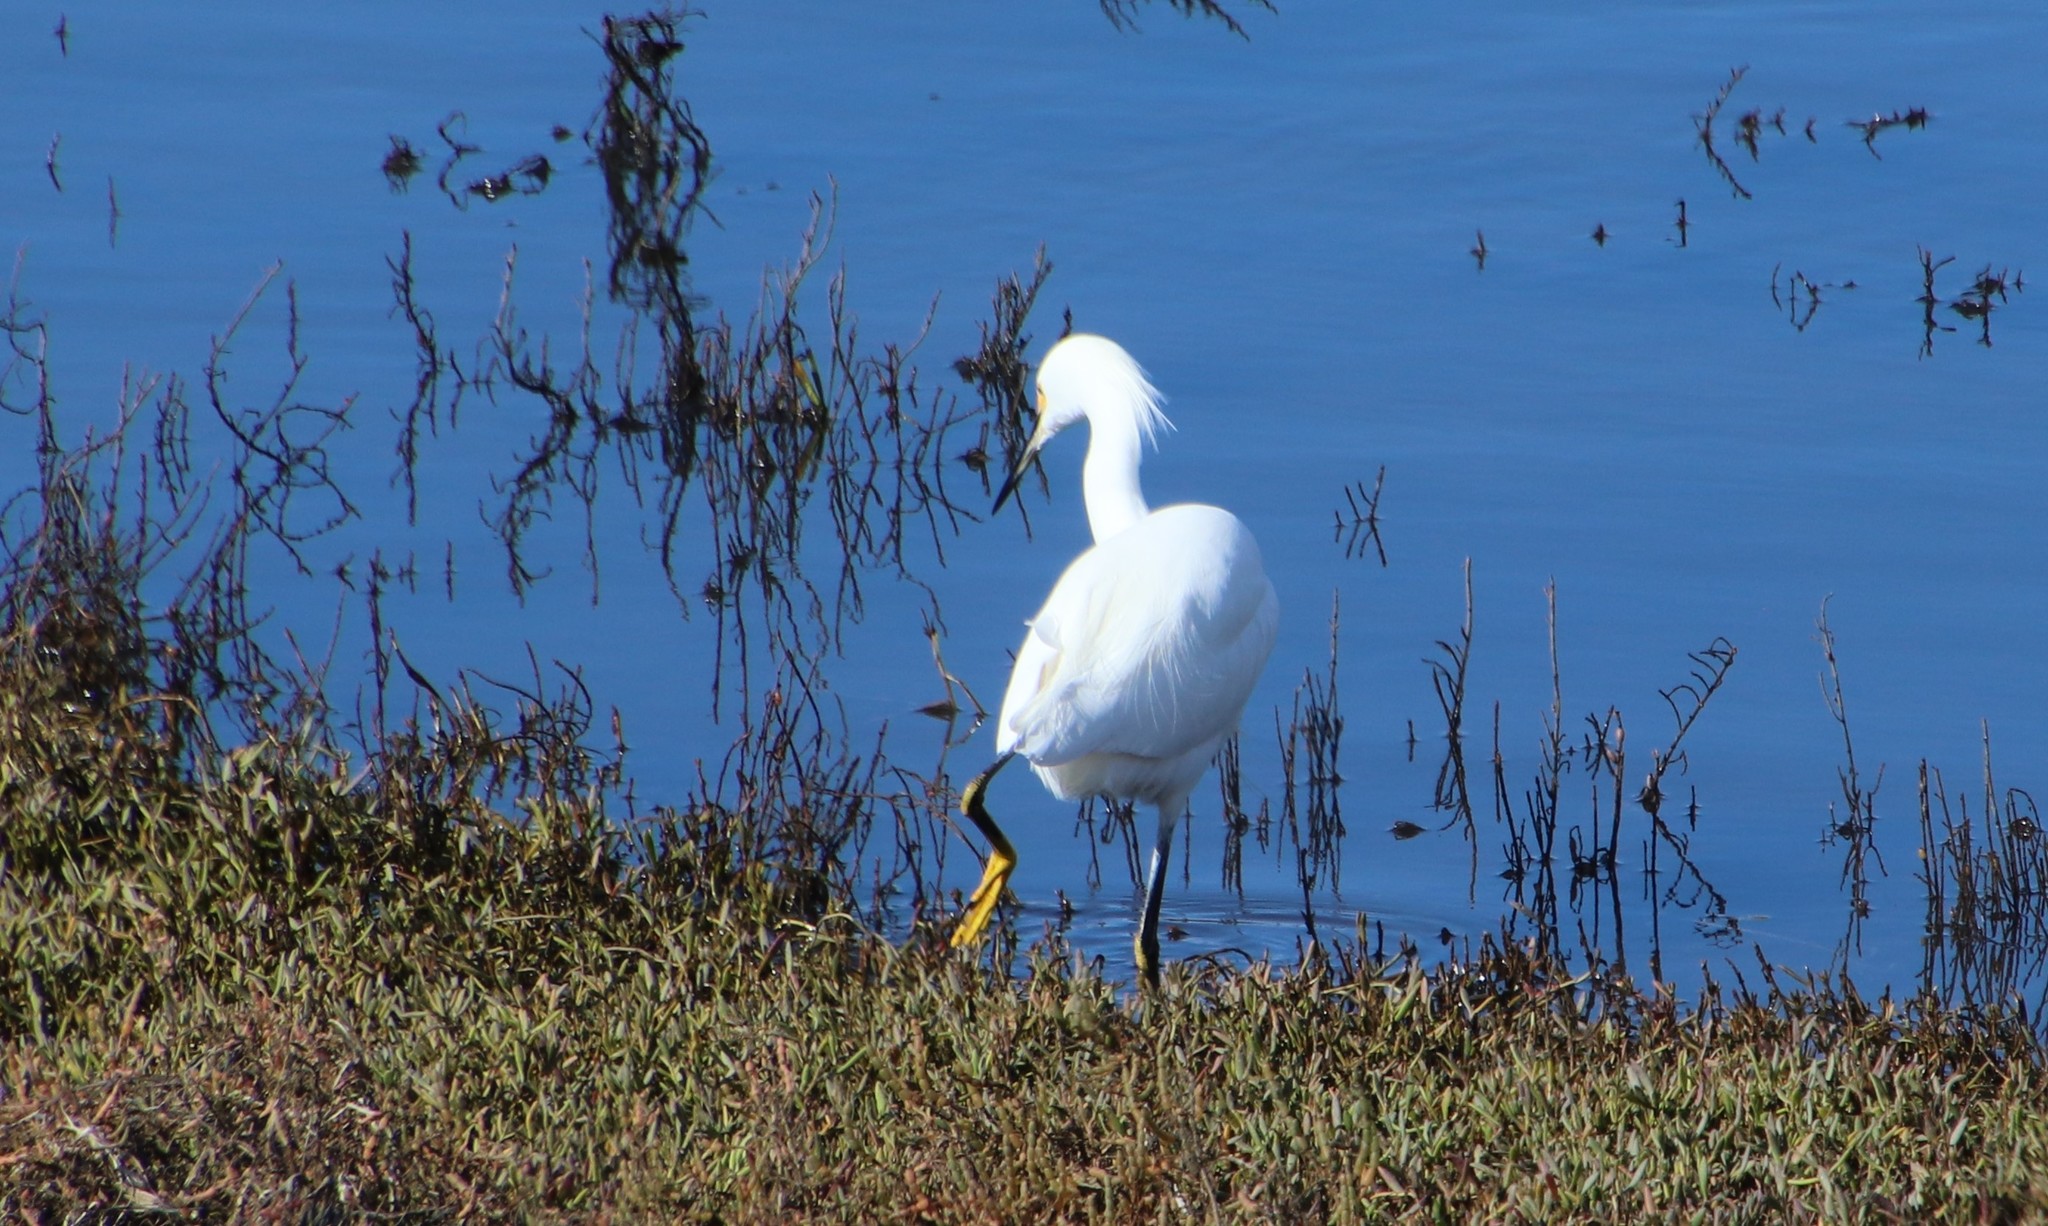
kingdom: Animalia
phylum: Chordata
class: Aves
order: Pelecaniformes
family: Ardeidae
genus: Egretta
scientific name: Egretta thula
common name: Snowy egret
